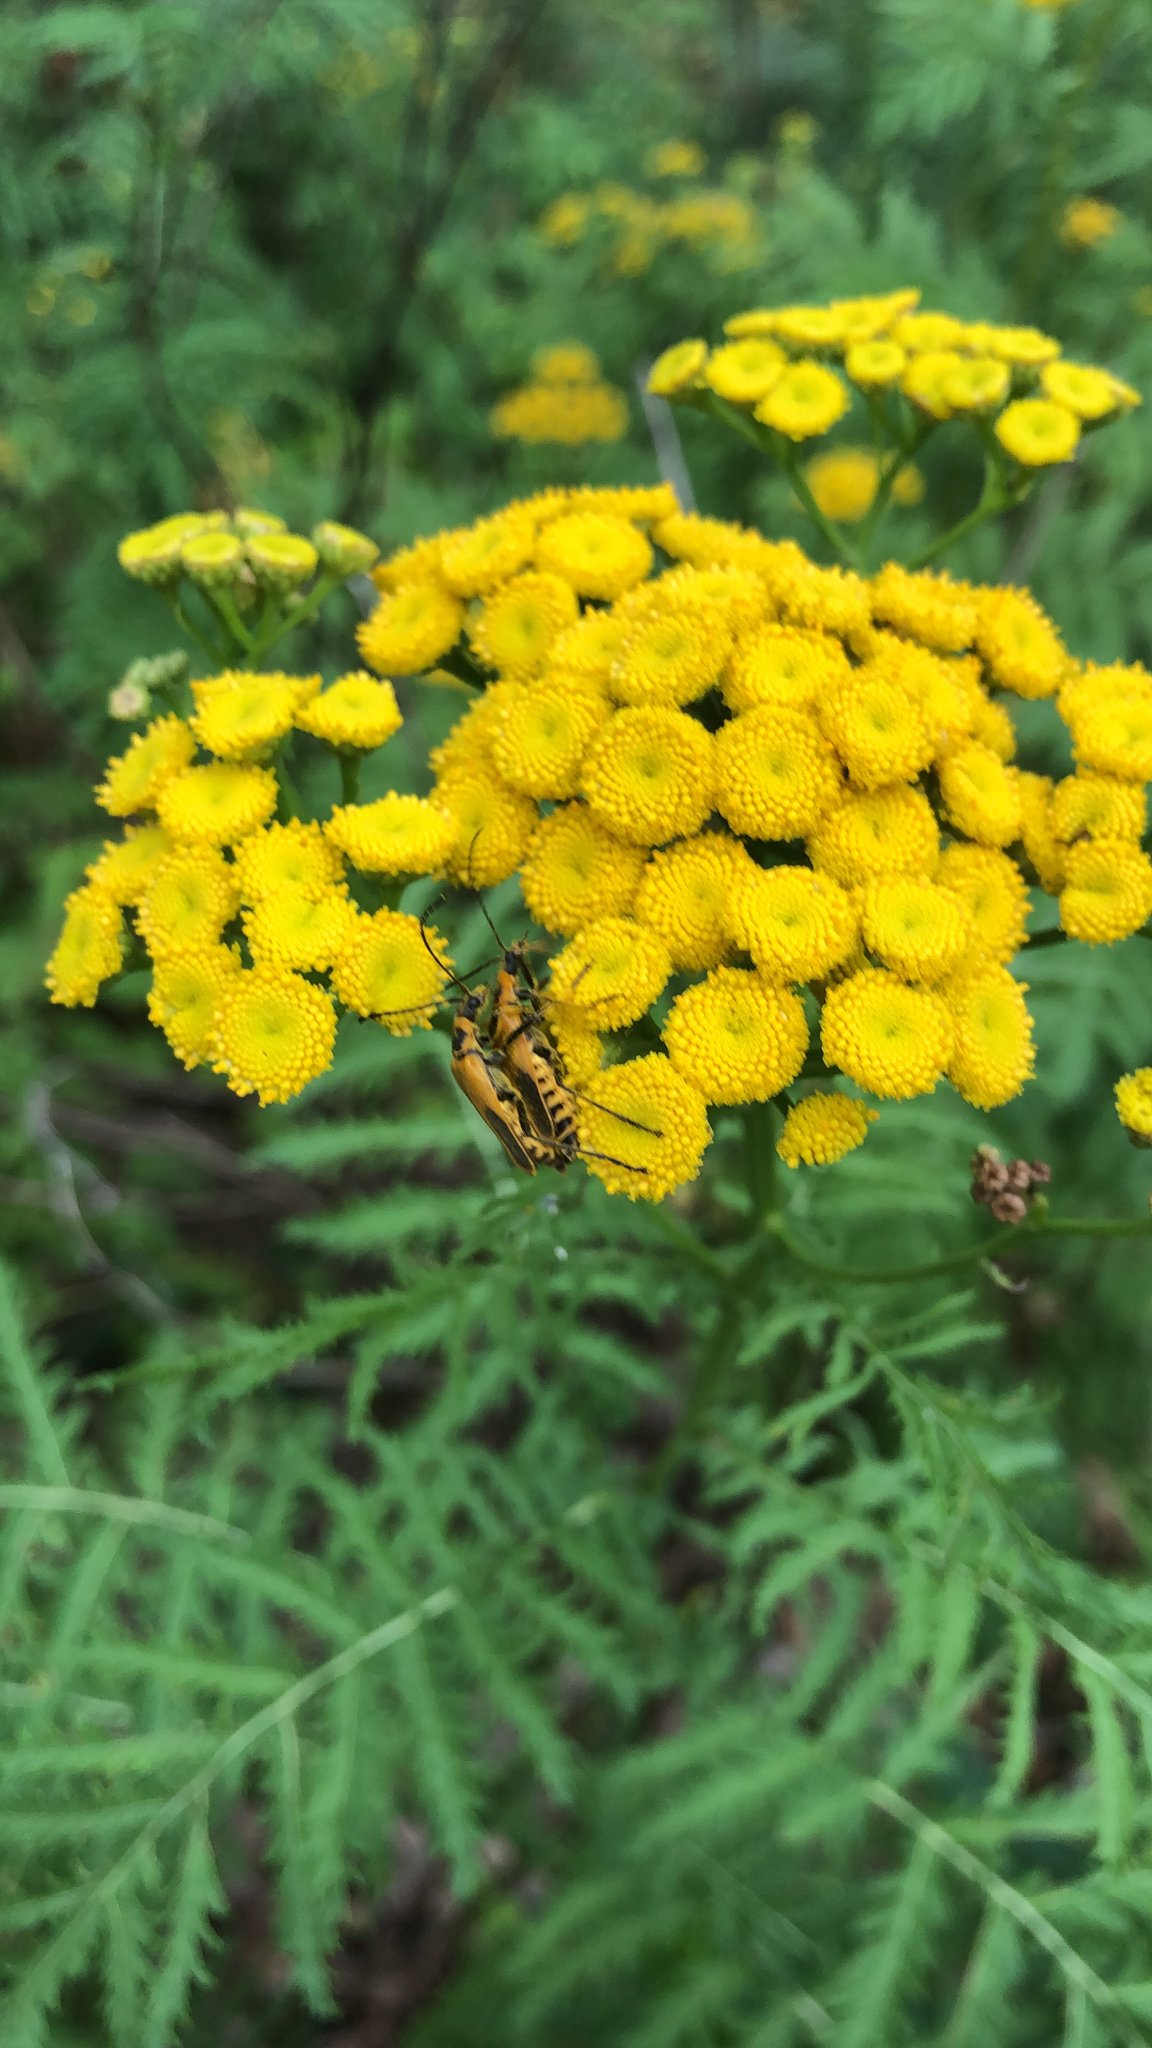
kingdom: Plantae
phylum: Tracheophyta
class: Magnoliopsida
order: Asterales
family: Asteraceae
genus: Tanacetum
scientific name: Tanacetum vulgare
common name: Common tansy
